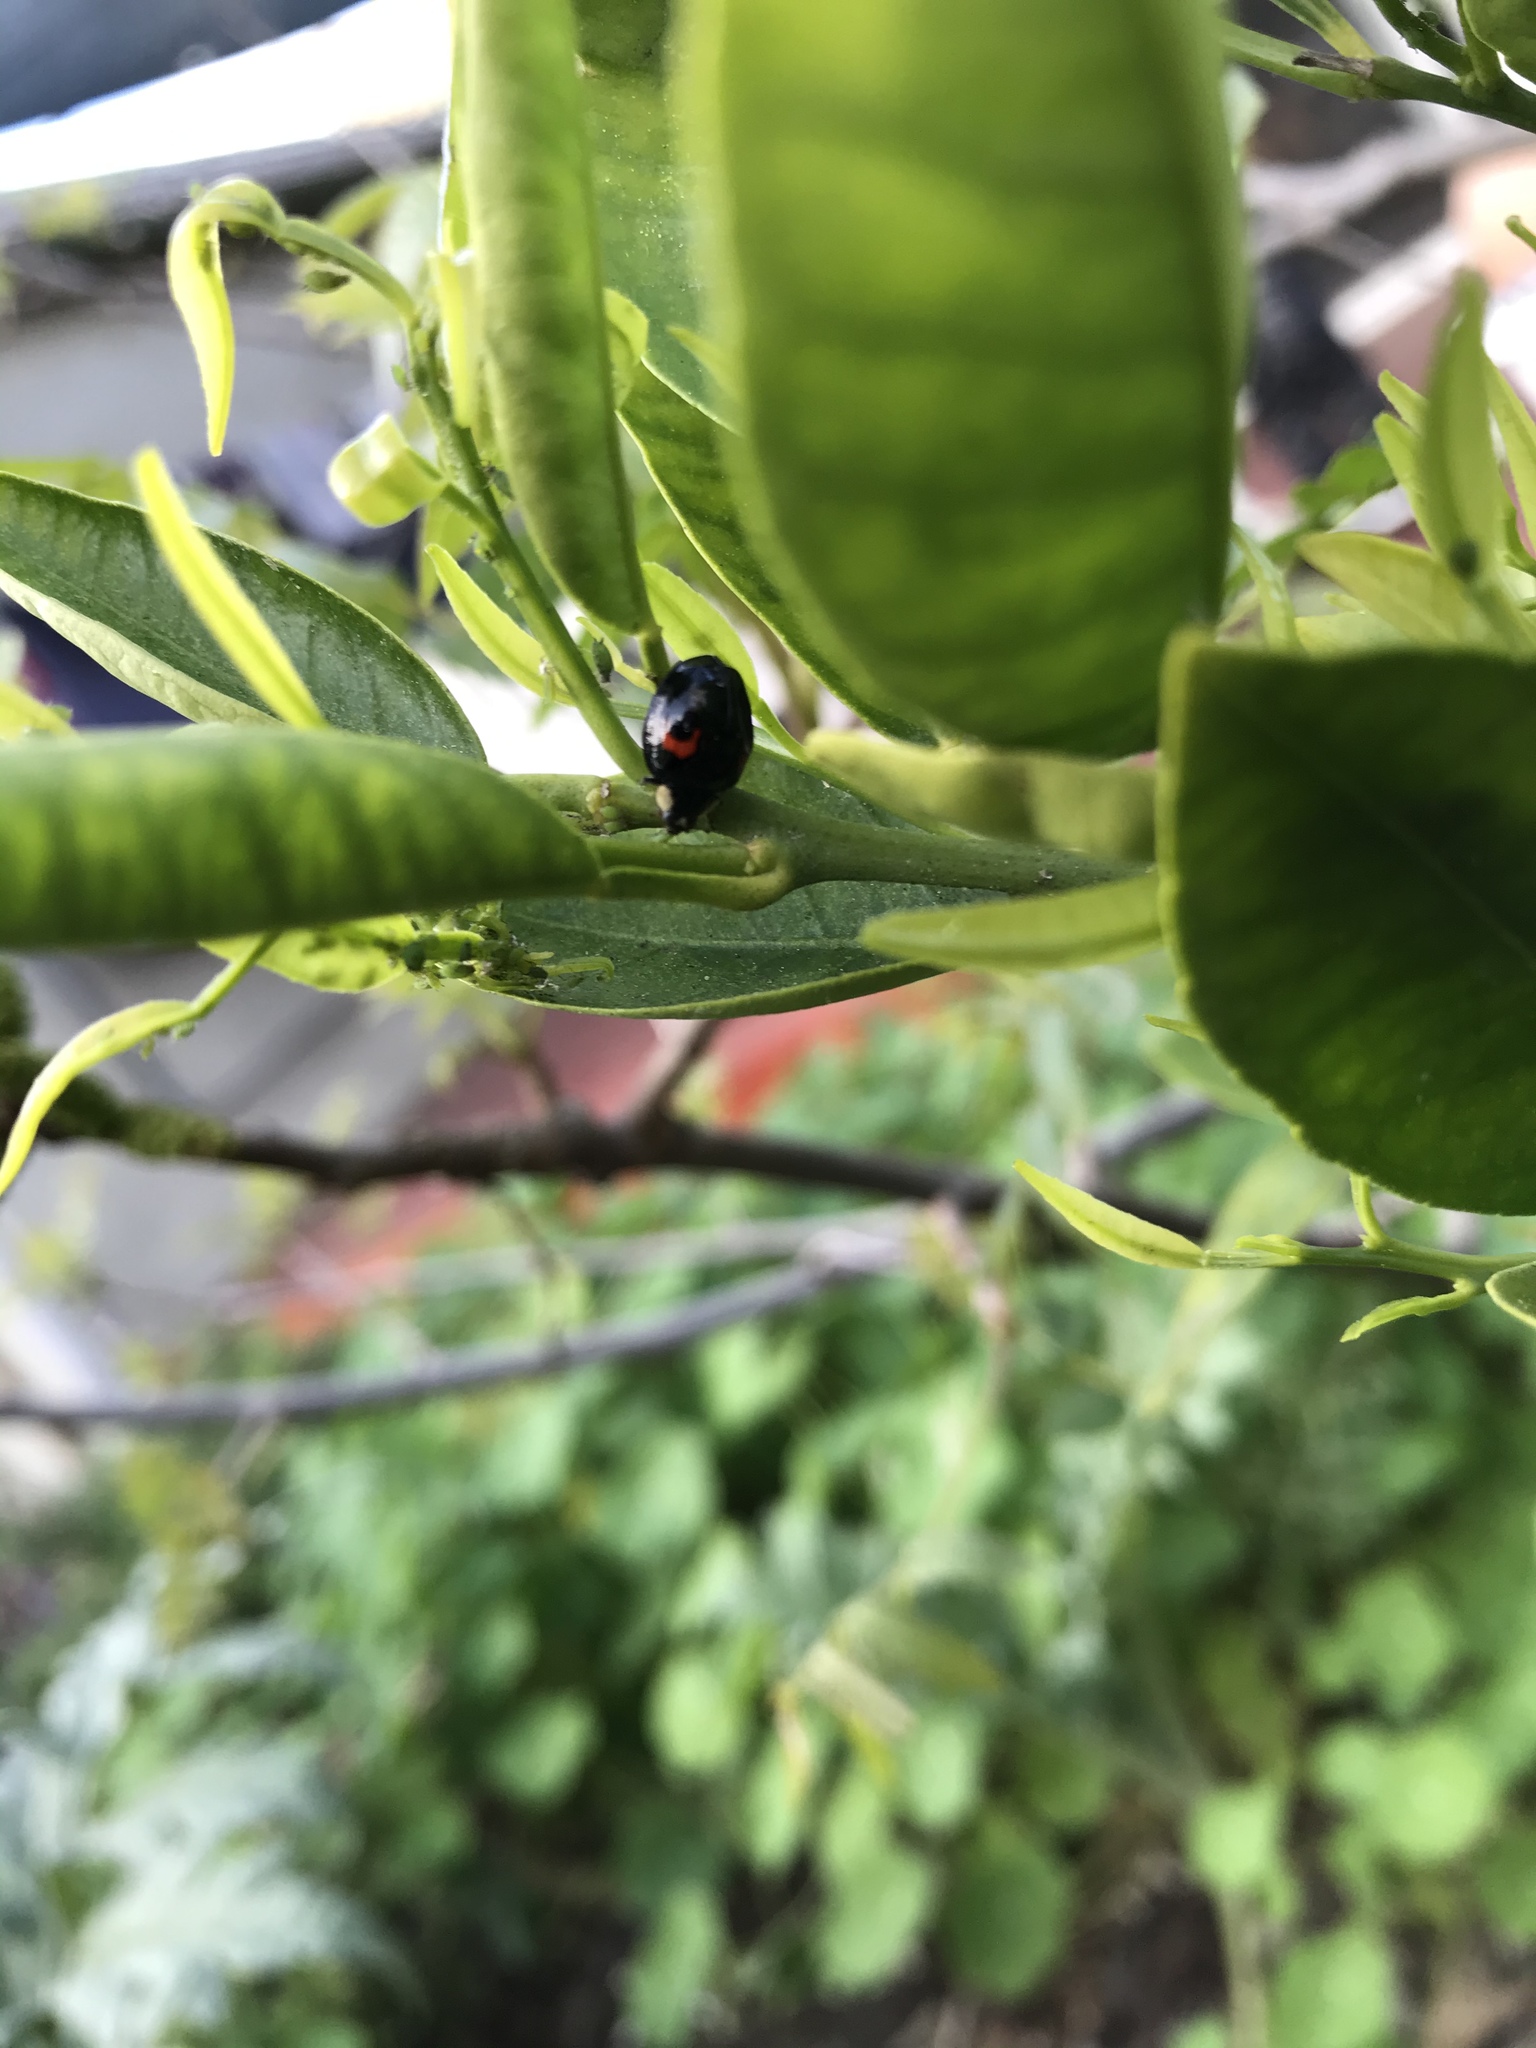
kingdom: Animalia
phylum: Arthropoda
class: Insecta
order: Coleoptera
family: Coccinellidae
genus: Harmonia
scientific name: Harmonia axyridis
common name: Harlequin ladybird
